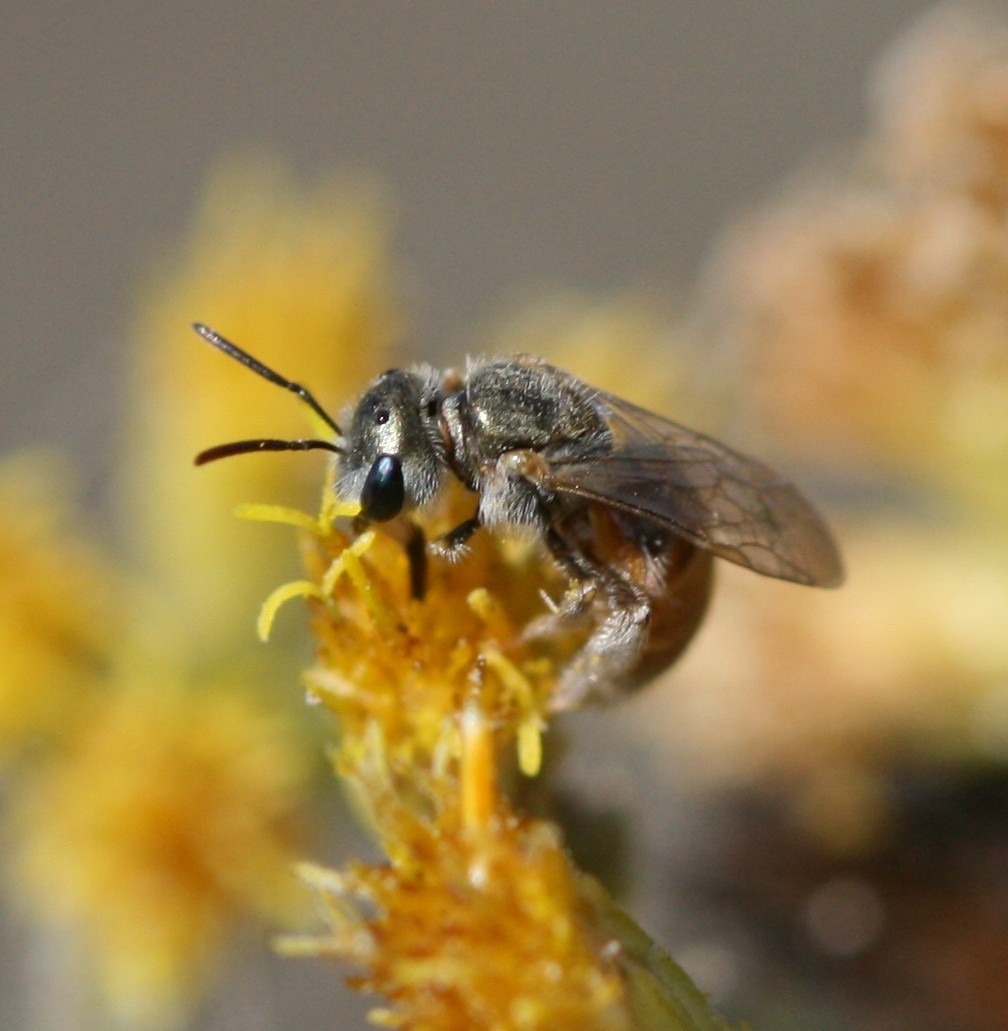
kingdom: Animalia
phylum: Arthropoda
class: Insecta
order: Hymenoptera
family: Halictidae
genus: Halictus
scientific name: Halictus concinnus
